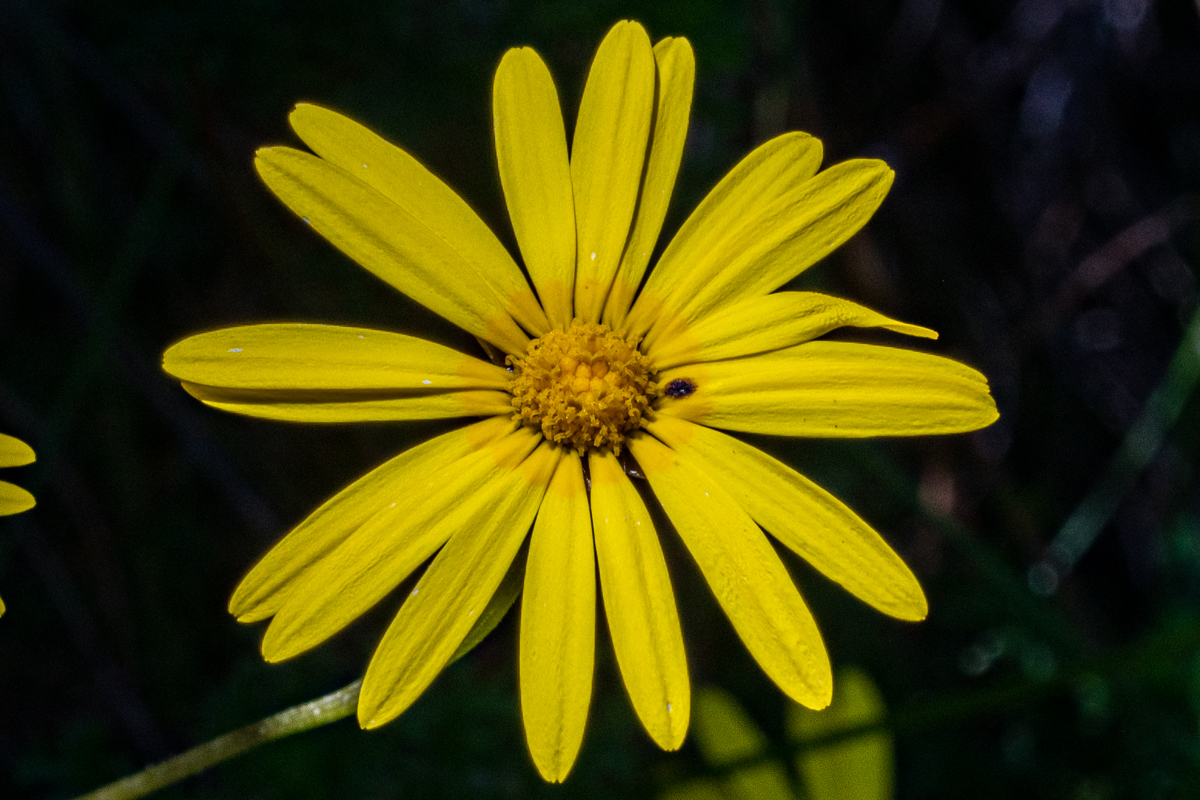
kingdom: Plantae
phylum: Tracheophyta
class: Magnoliopsida
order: Asterales
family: Asteraceae
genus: Ursinia
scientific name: Ursinia dentata
